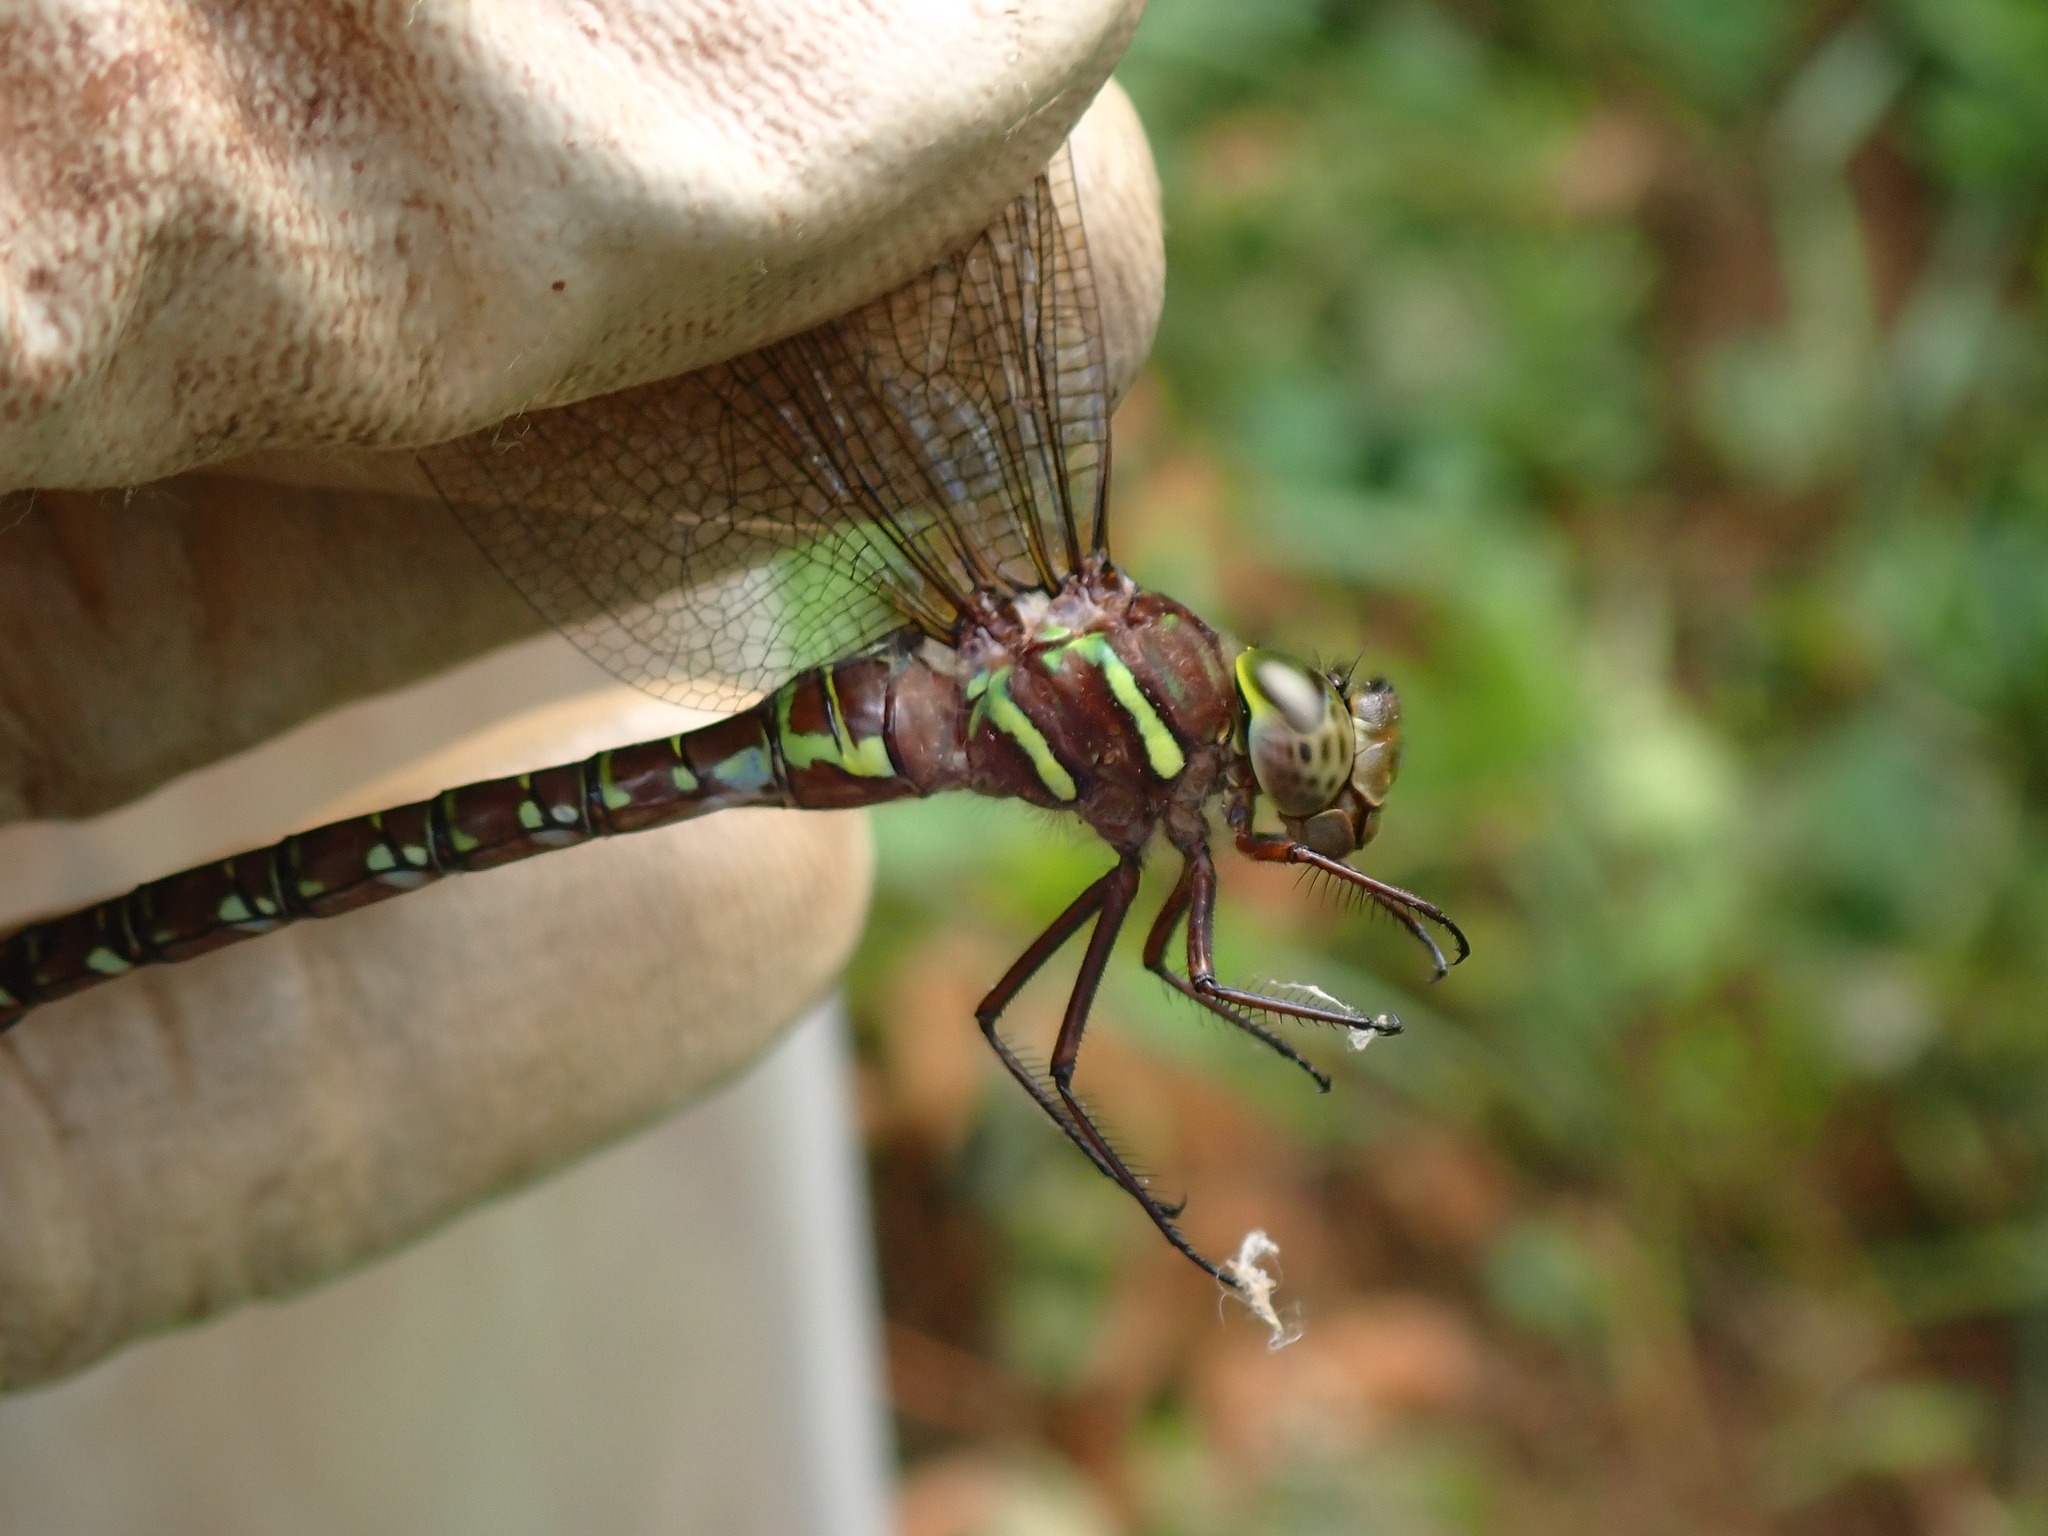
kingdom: Animalia
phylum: Arthropoda
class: Insecta
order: Odonata
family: Aeshnidae
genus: Aeshna
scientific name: Aeshna umbrosa
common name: Shadow darner
